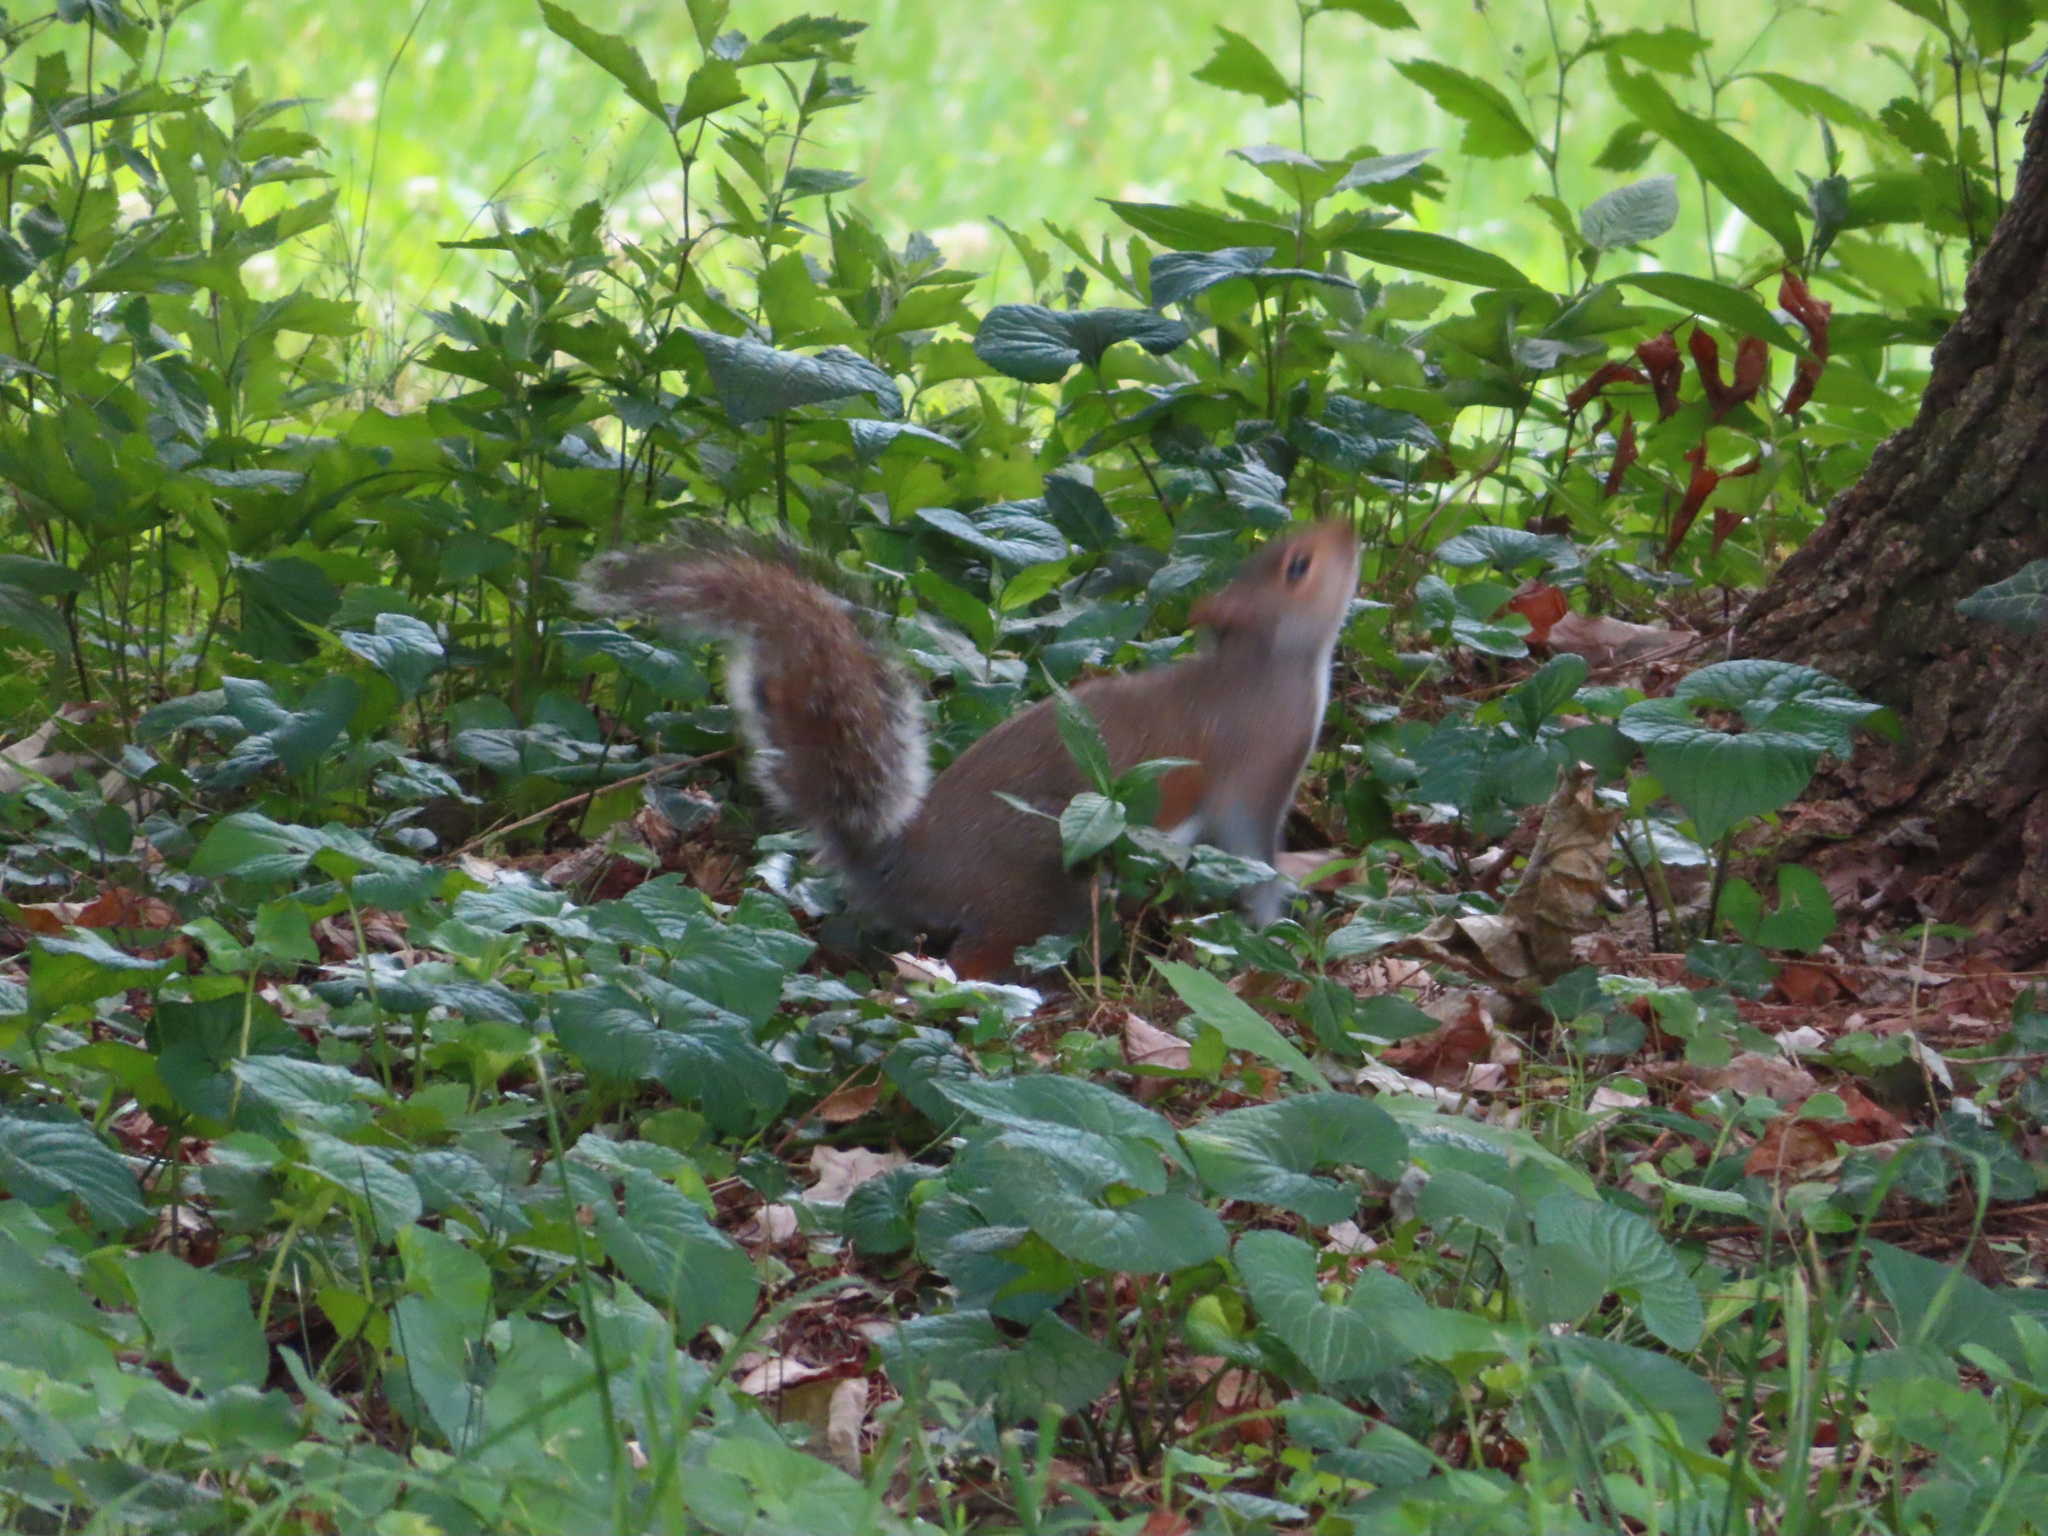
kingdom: Animalia
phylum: Chordata
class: Mammalia
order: Rodentia
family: Sciuridae
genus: Sciurus
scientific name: Sciurus carolinensis
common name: Eastern gray squirrel
